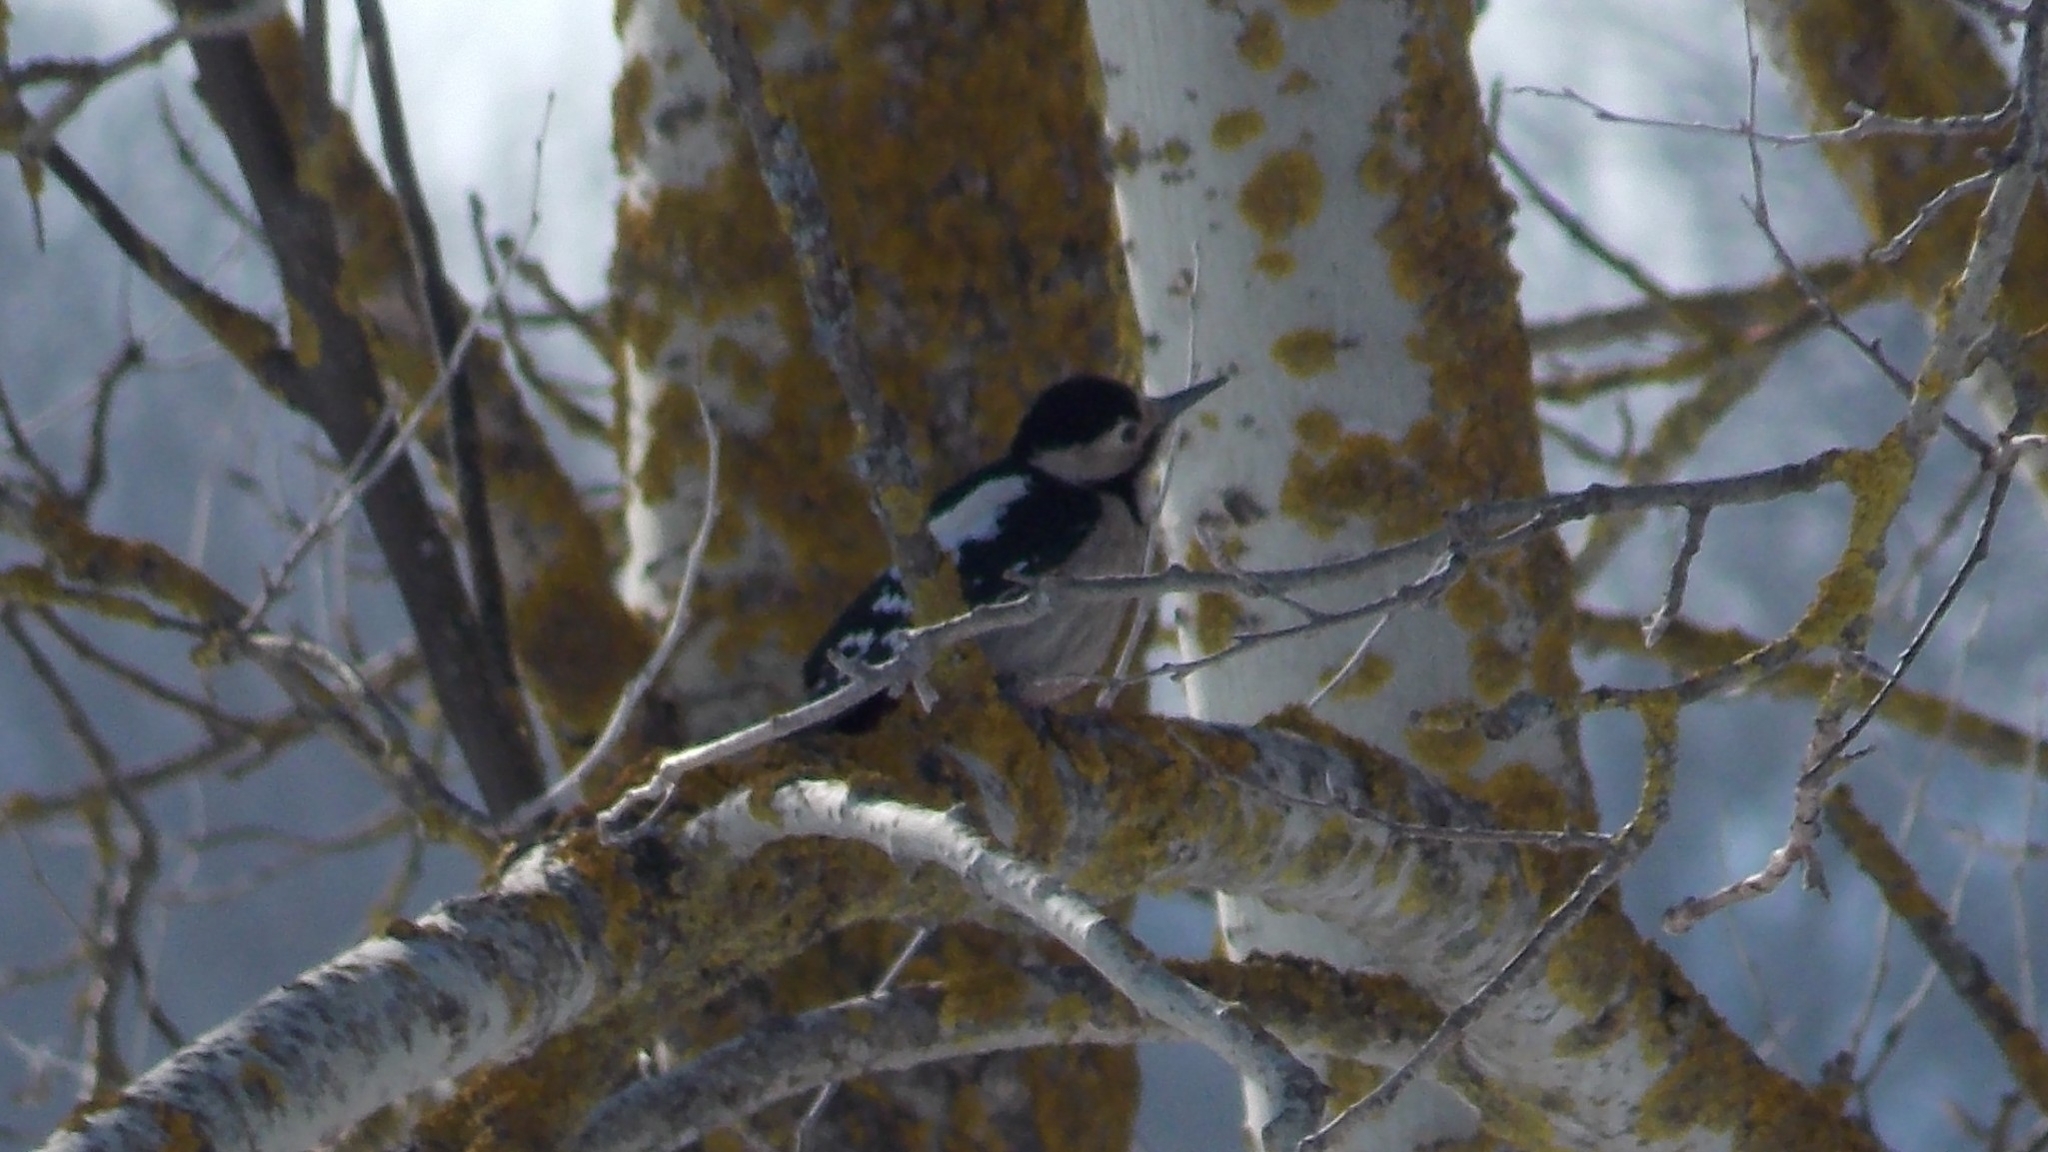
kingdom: Animalia
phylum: Chordata
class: Aves
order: Piciformes
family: Picidae
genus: Dendrocopos
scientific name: Dendrocopos syriacus
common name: Syrian woodpecker
